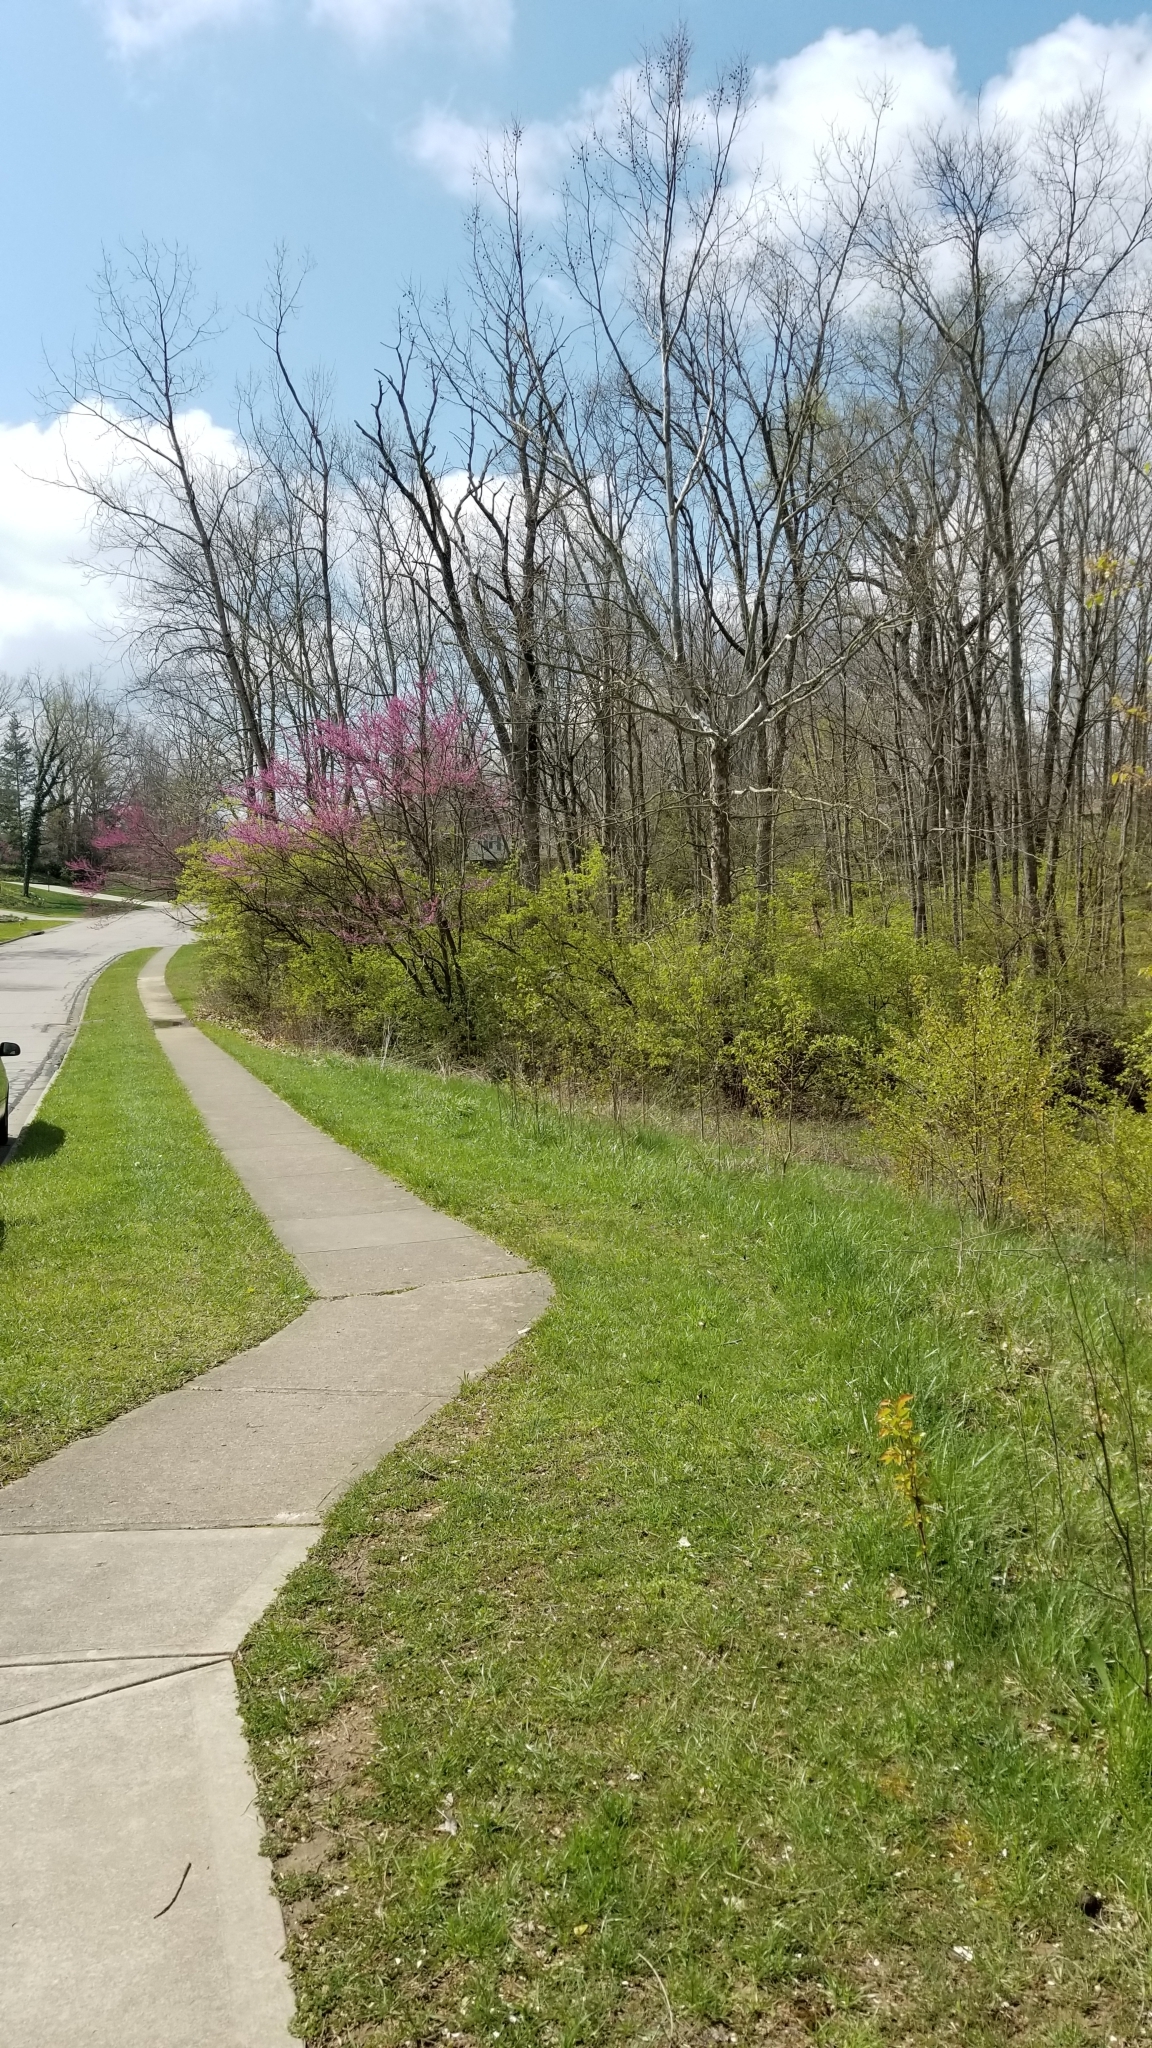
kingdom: Plantae
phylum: Tracheophyta
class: Magnoliopsida
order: Fabales
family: Fabaceae
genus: Cercis
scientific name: Cercis canadensis
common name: Eastern redbud
